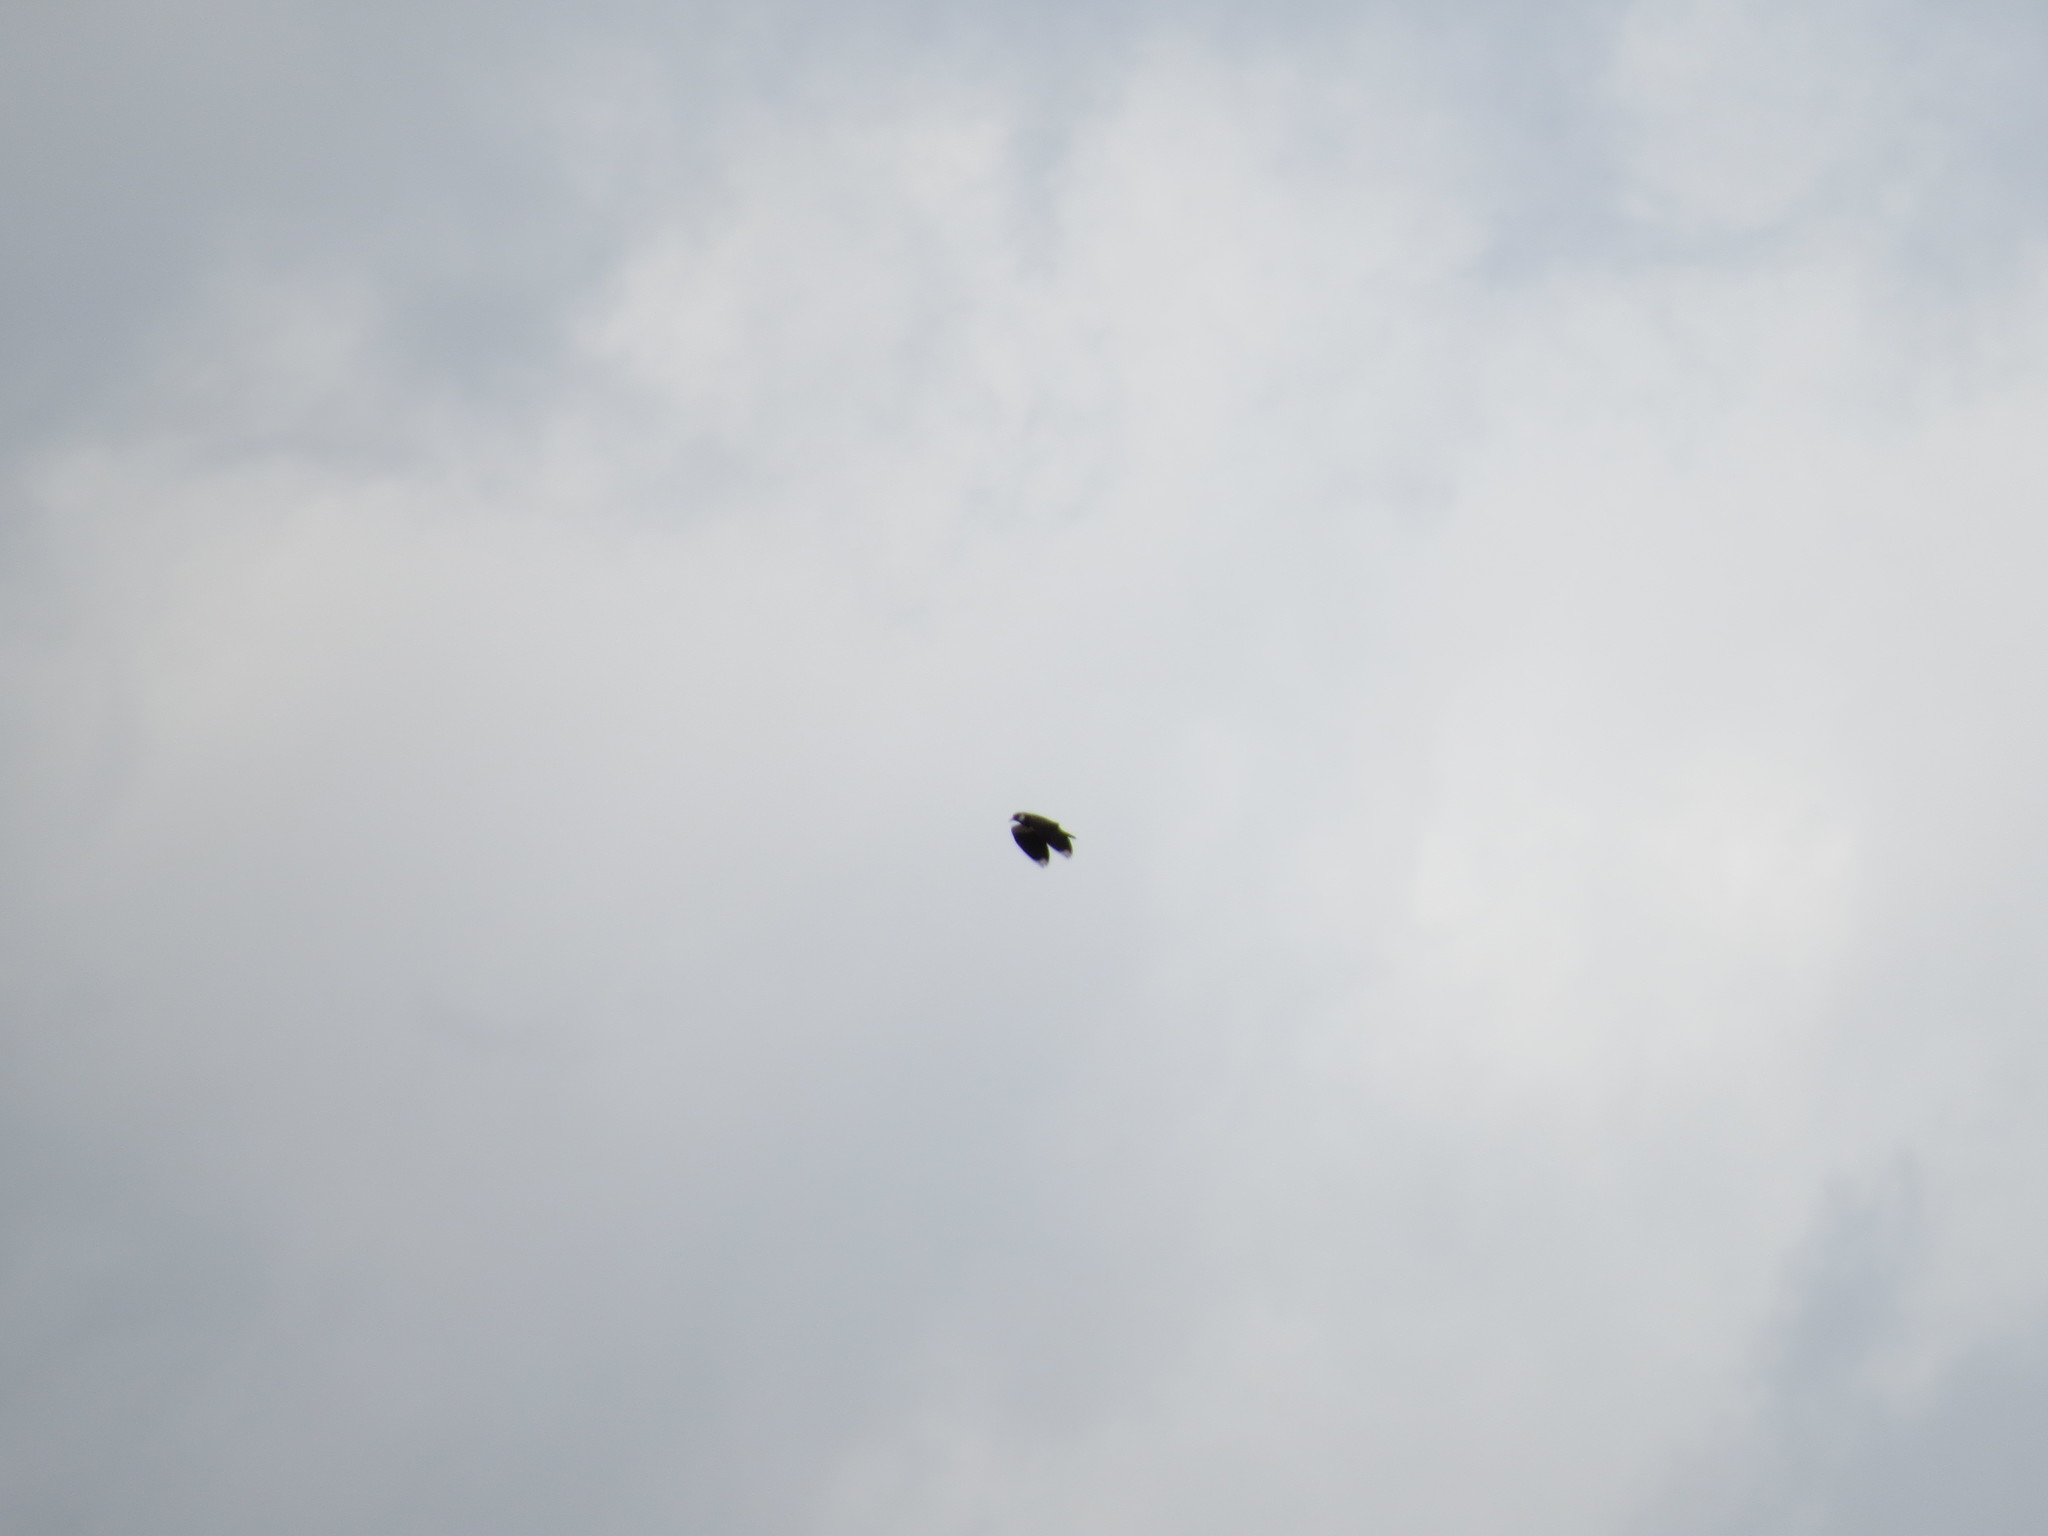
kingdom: Animalia
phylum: Chordata
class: Aves
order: Charadriiformes
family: Charadriidae
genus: Vanellus
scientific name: Vanellus vanellus
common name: Northern lapwing
